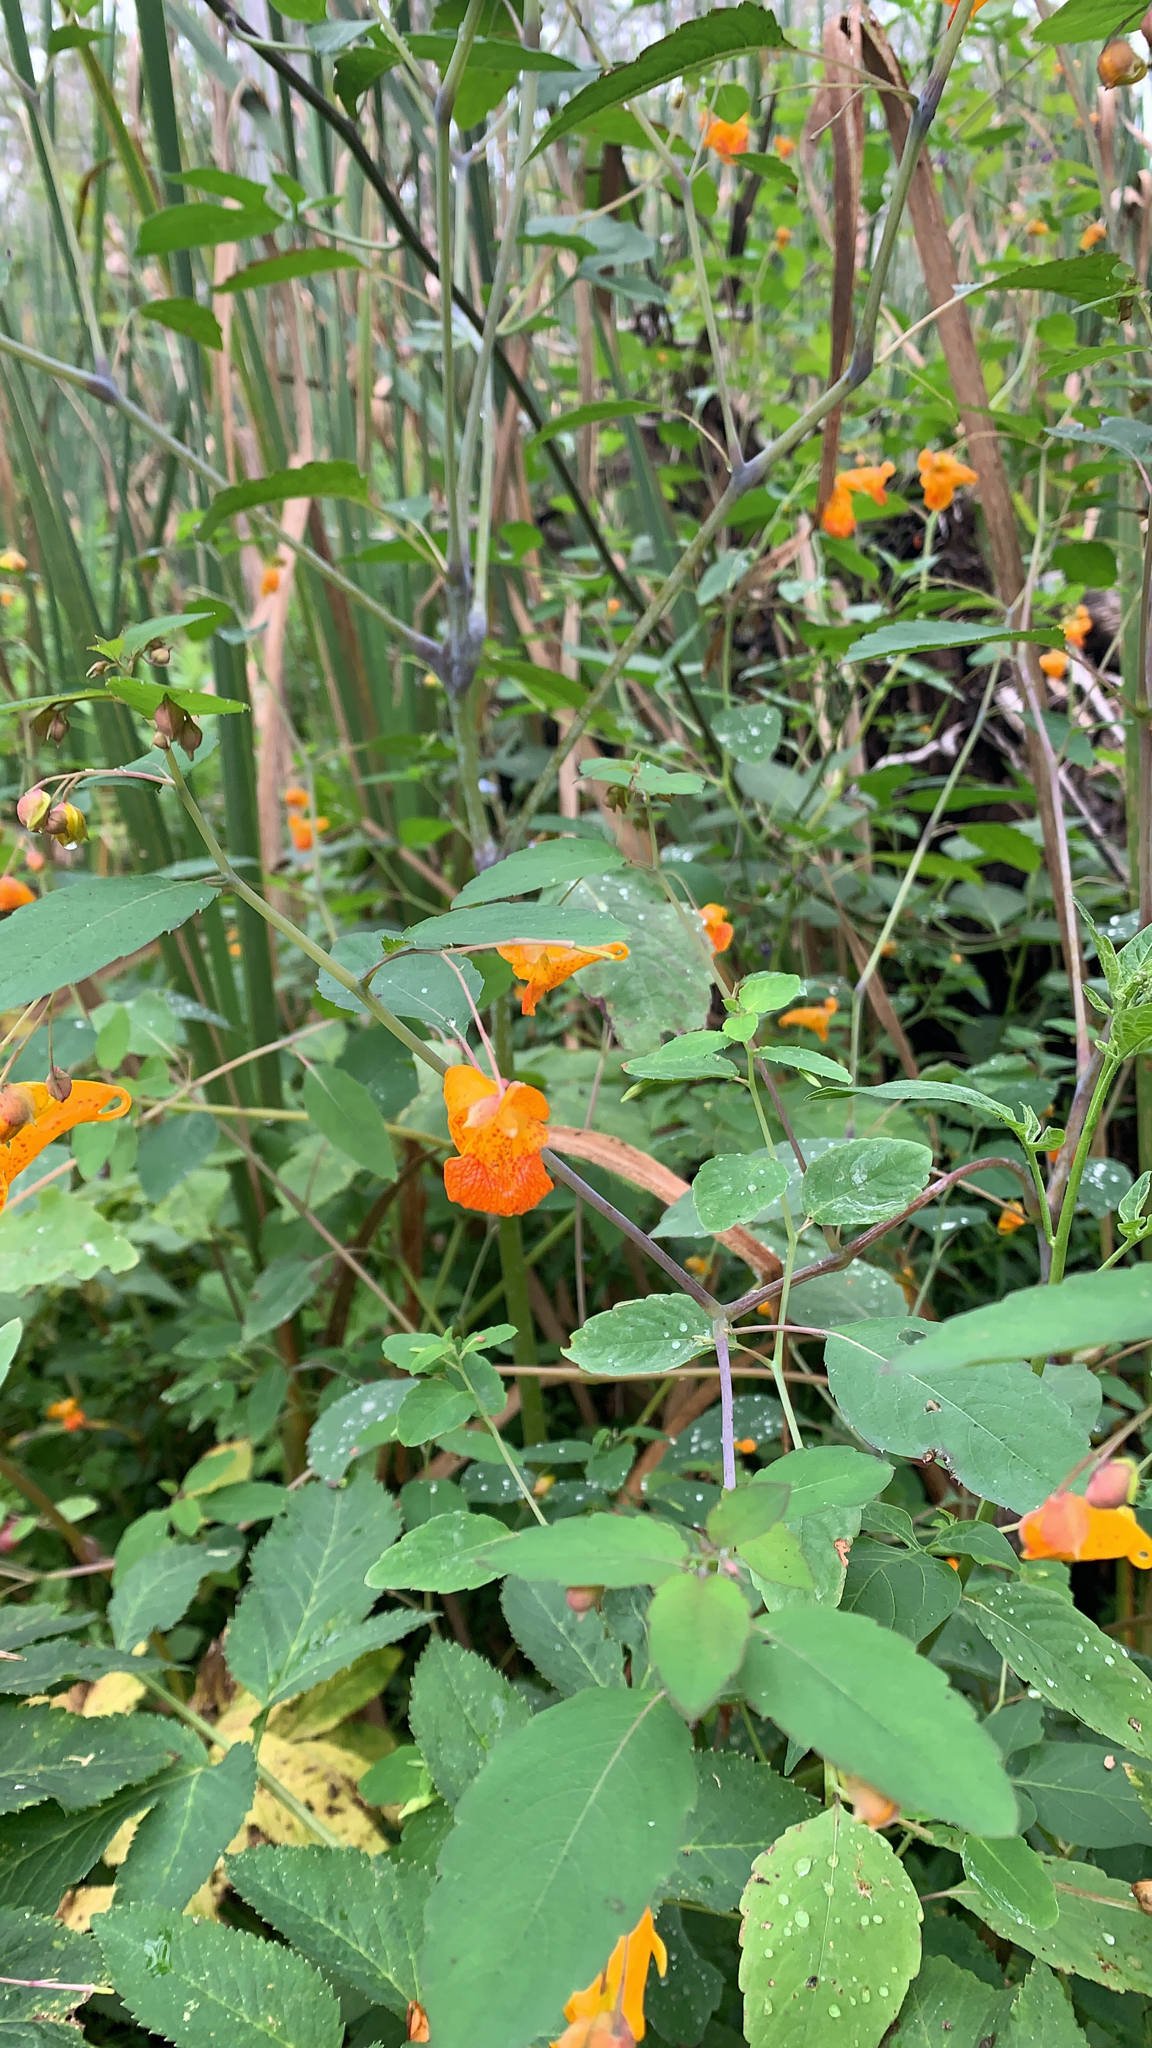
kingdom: Plantae
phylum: Tracheophyta
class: Magnoliopsida
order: Ericales
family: Balsaminaceae
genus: Impatiens
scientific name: Impatiens capensis
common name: Orange balsam
